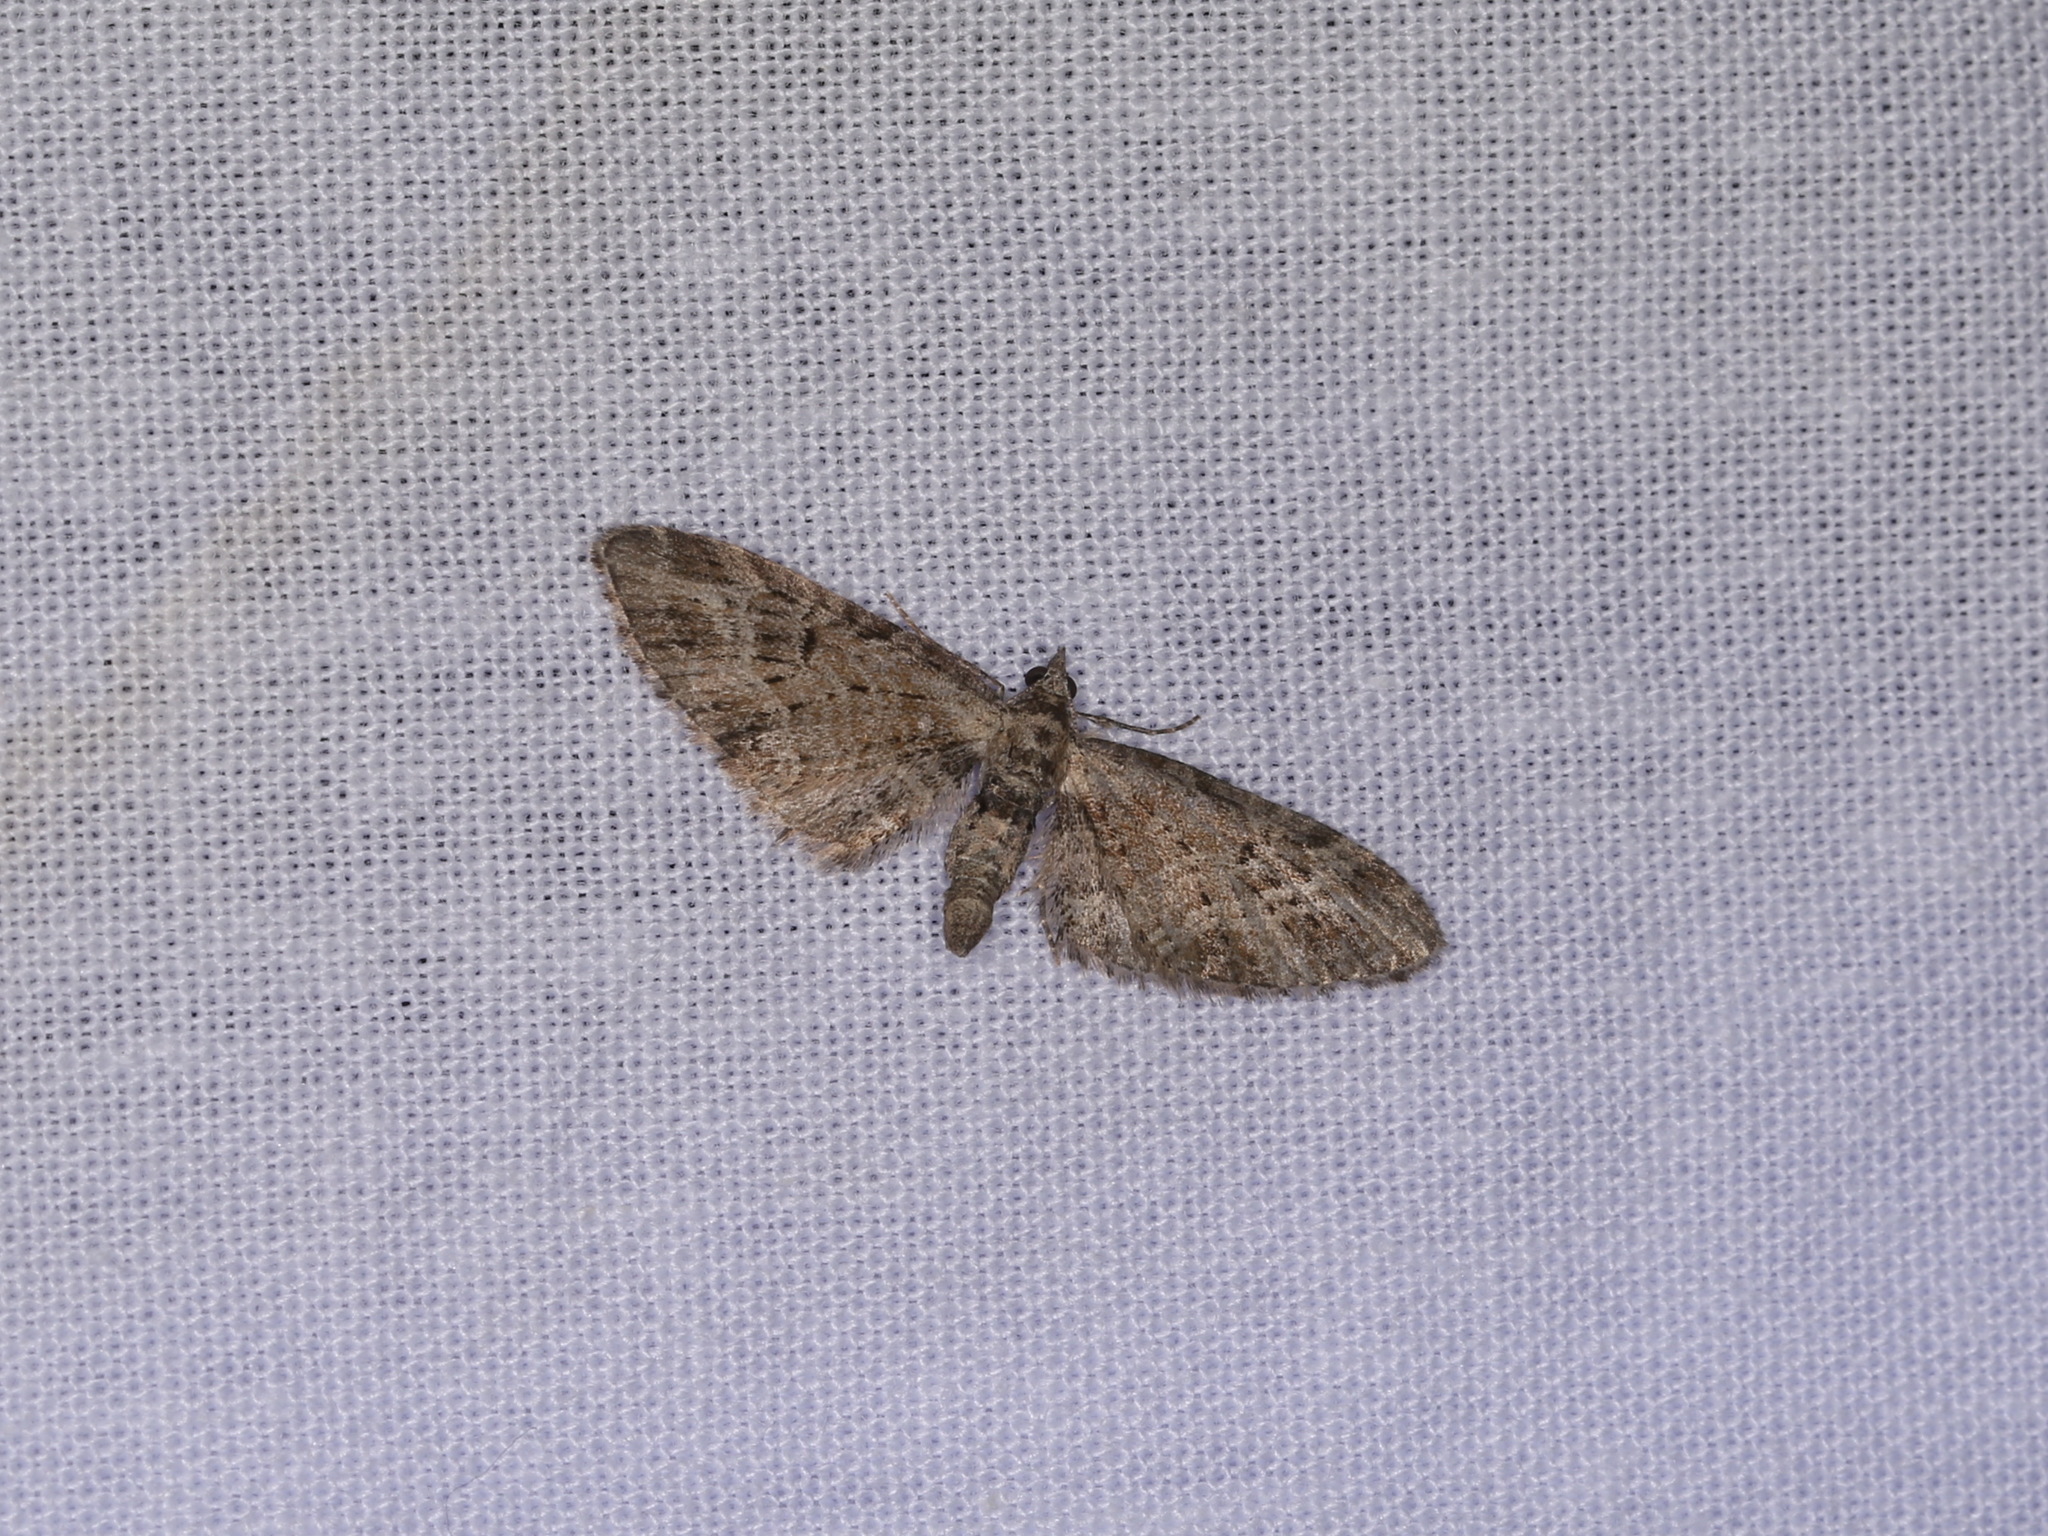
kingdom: Animalia
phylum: Arthropoda
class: Insecta
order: Lepidoptera
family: Geometridae
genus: Eupithecia
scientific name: Eupithecia exiguata
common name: Mottled pug
